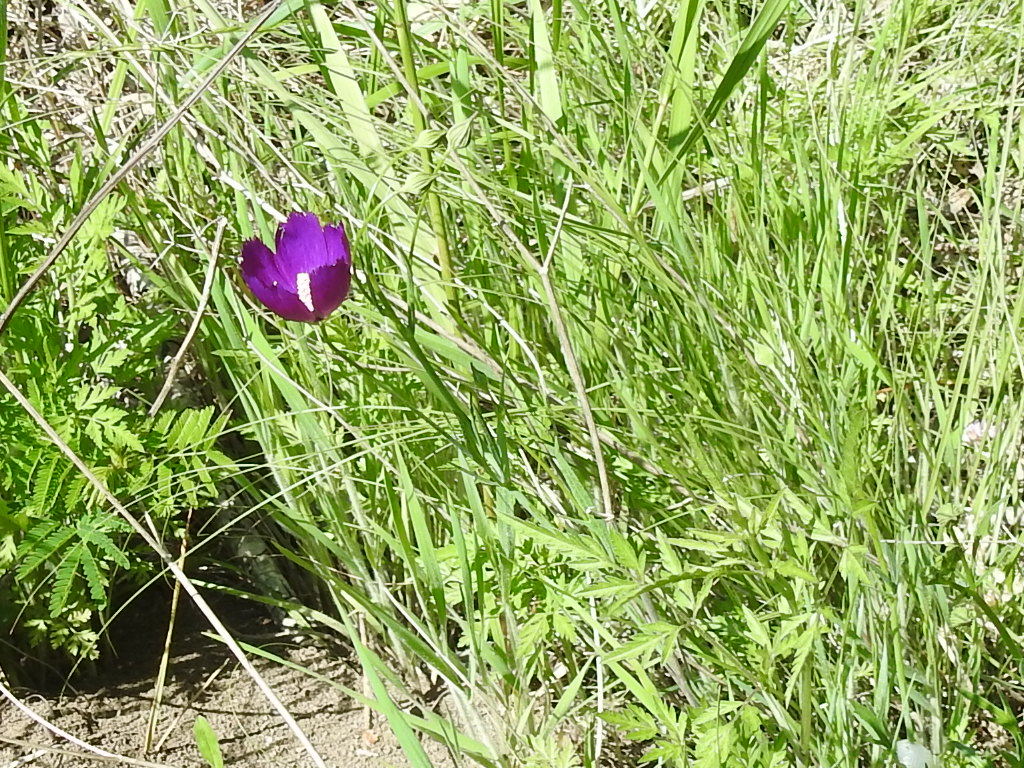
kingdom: Plantae
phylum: Tracheophyta
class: Magnoliopsida
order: Malvales
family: Malvaceae
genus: Callirhoe
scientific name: Callirhoe pedata
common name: Finger poppy-mallow
